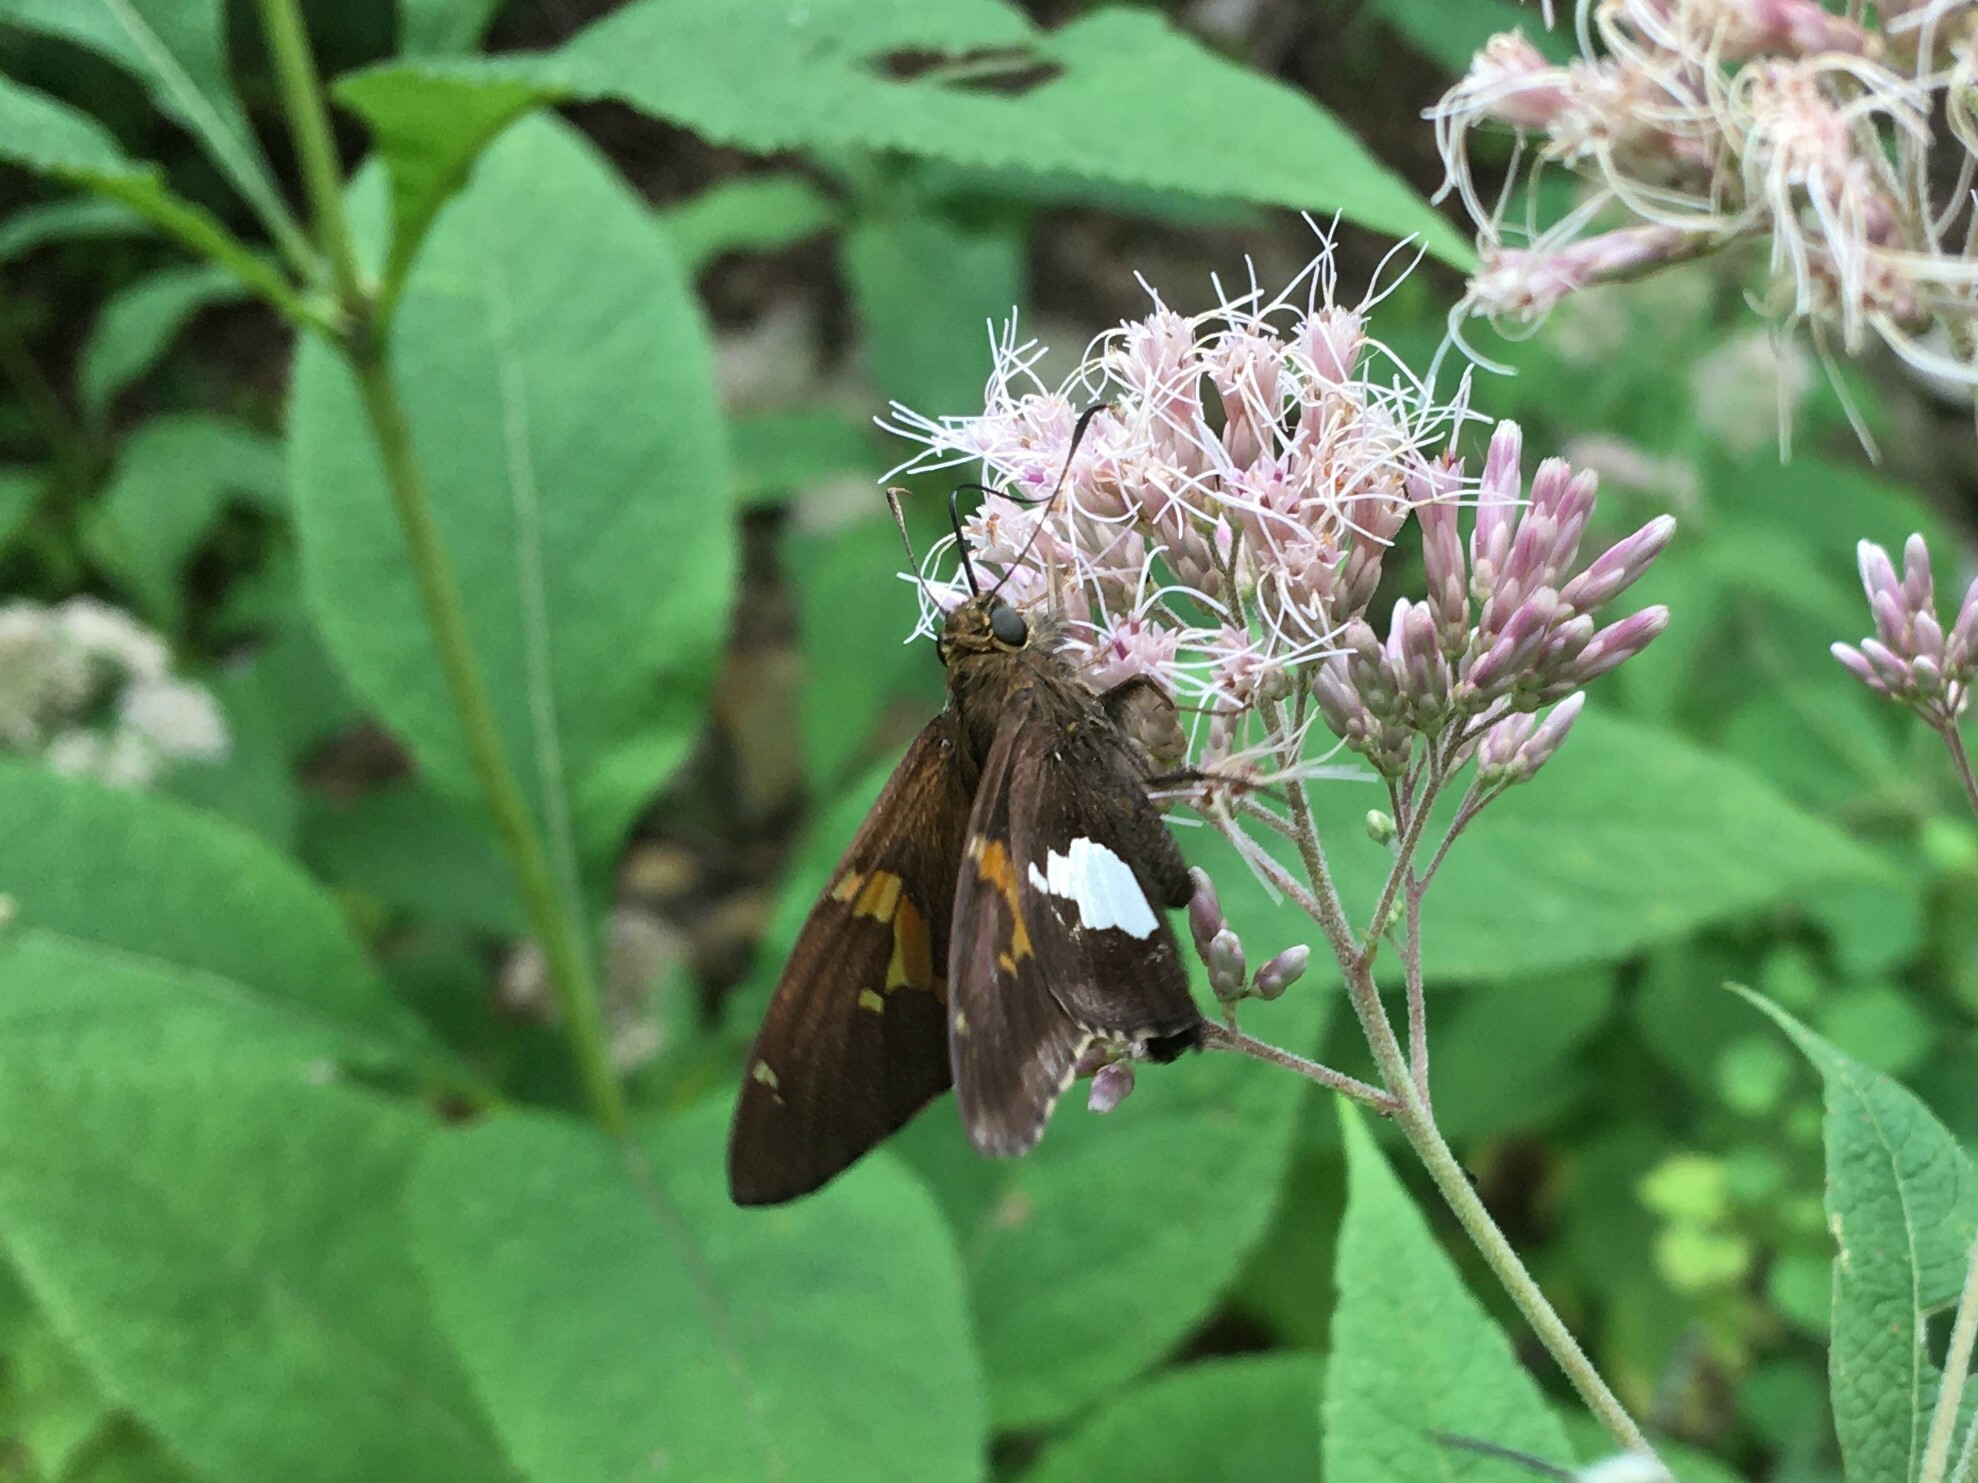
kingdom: Animalia
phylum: Arthropoda
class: Insecta
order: Lepidoptera
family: Hesperiidae
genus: Epargyreus
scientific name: Epargyreus clarus
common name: Silver-spotted skipper
